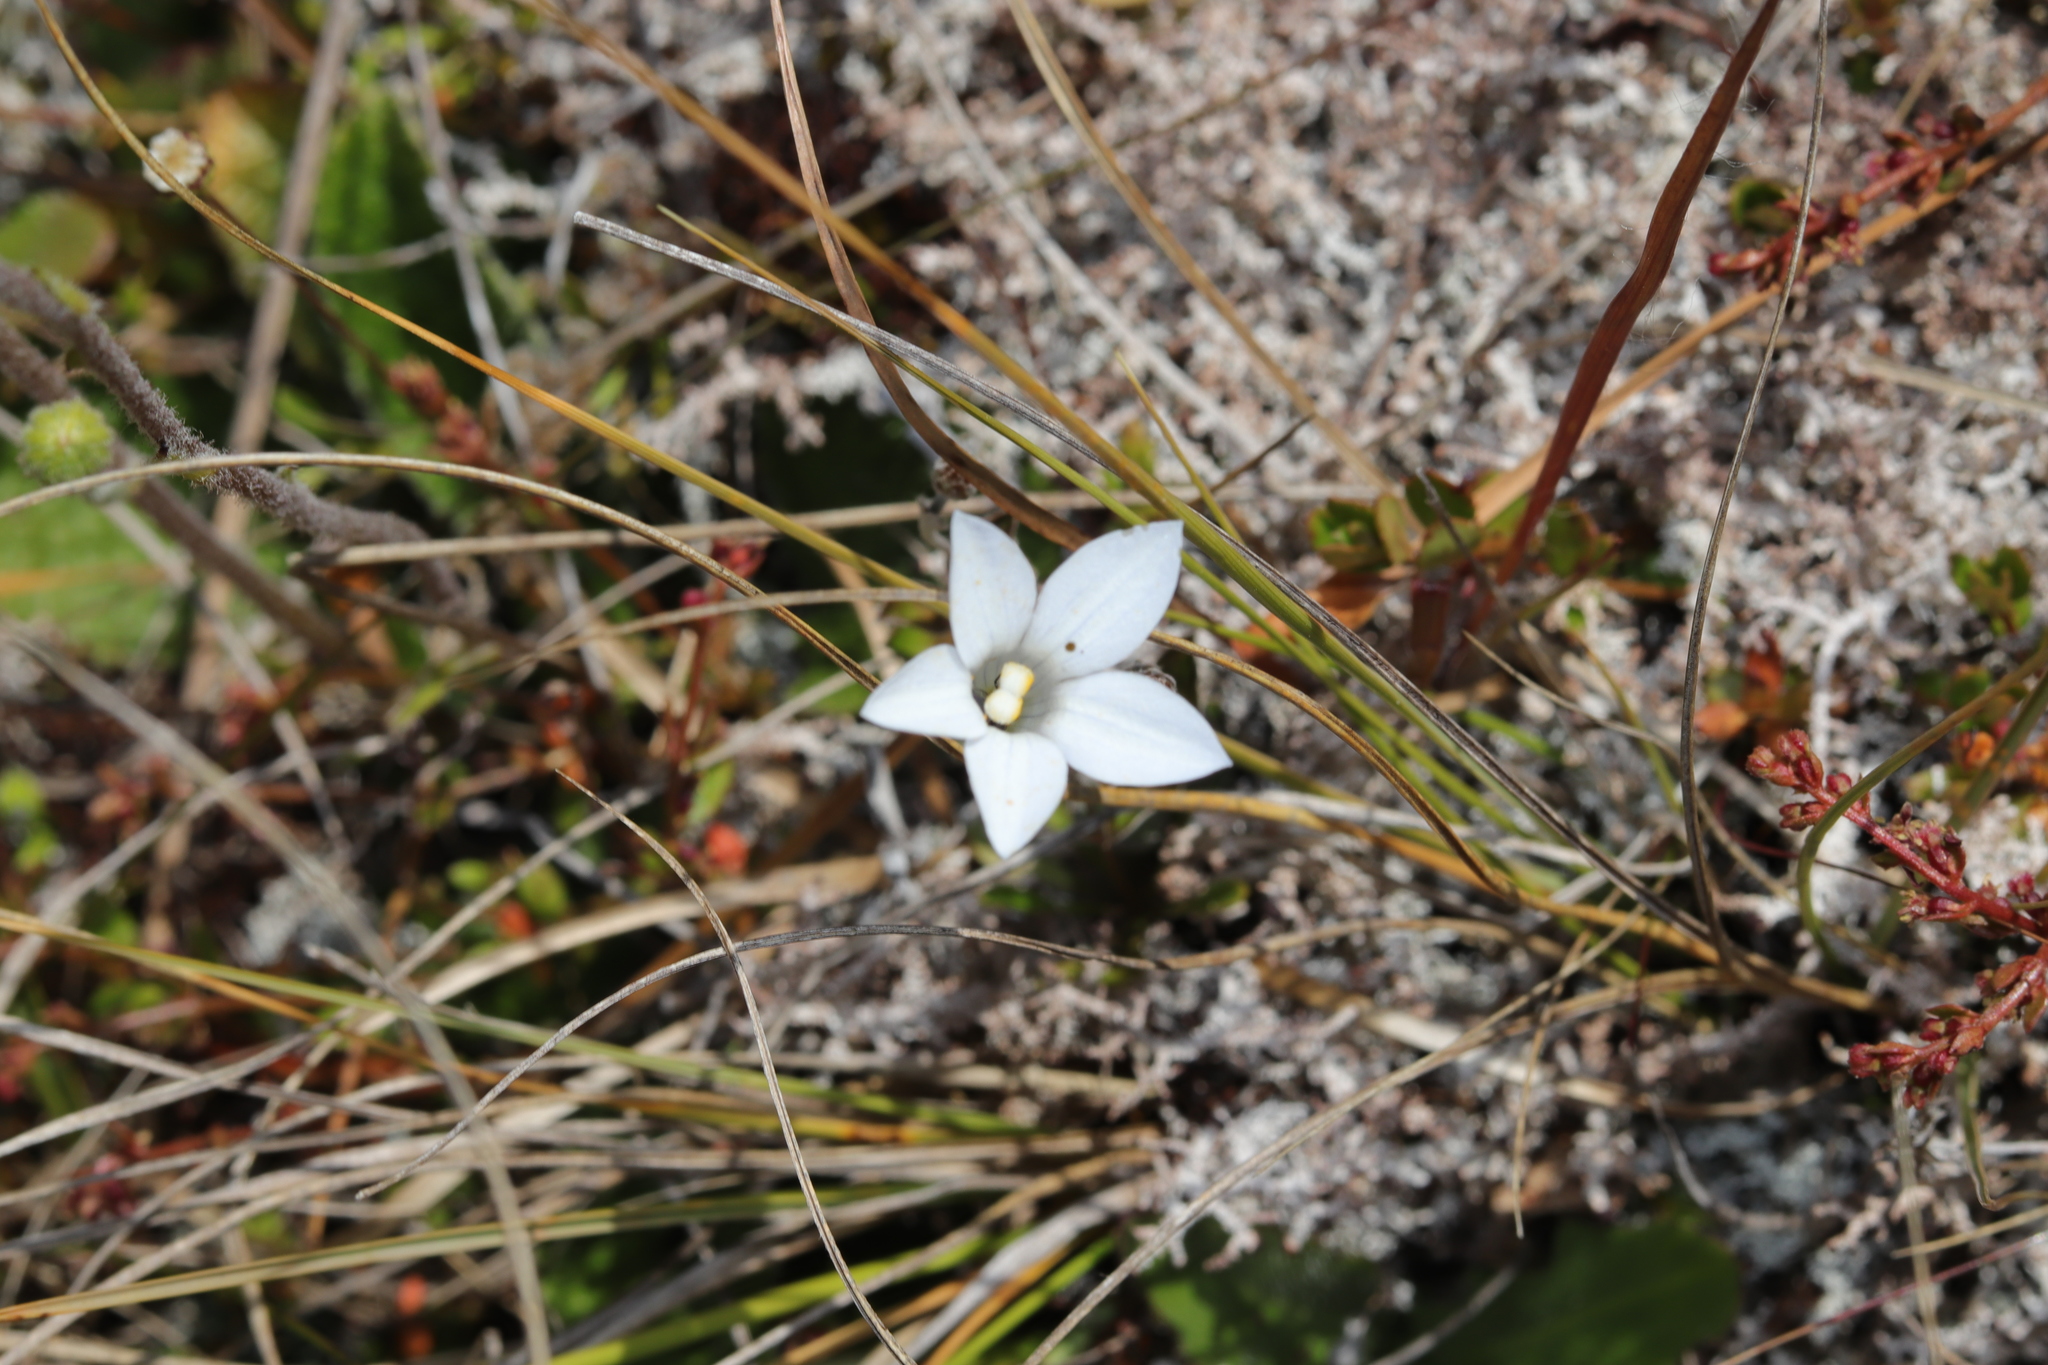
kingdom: Plantae
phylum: Tracheophyta
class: Magnoliopsida
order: Asterales
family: Campanulaceae
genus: Wahlenbergia
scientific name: Wahlenbergia albomarginata
